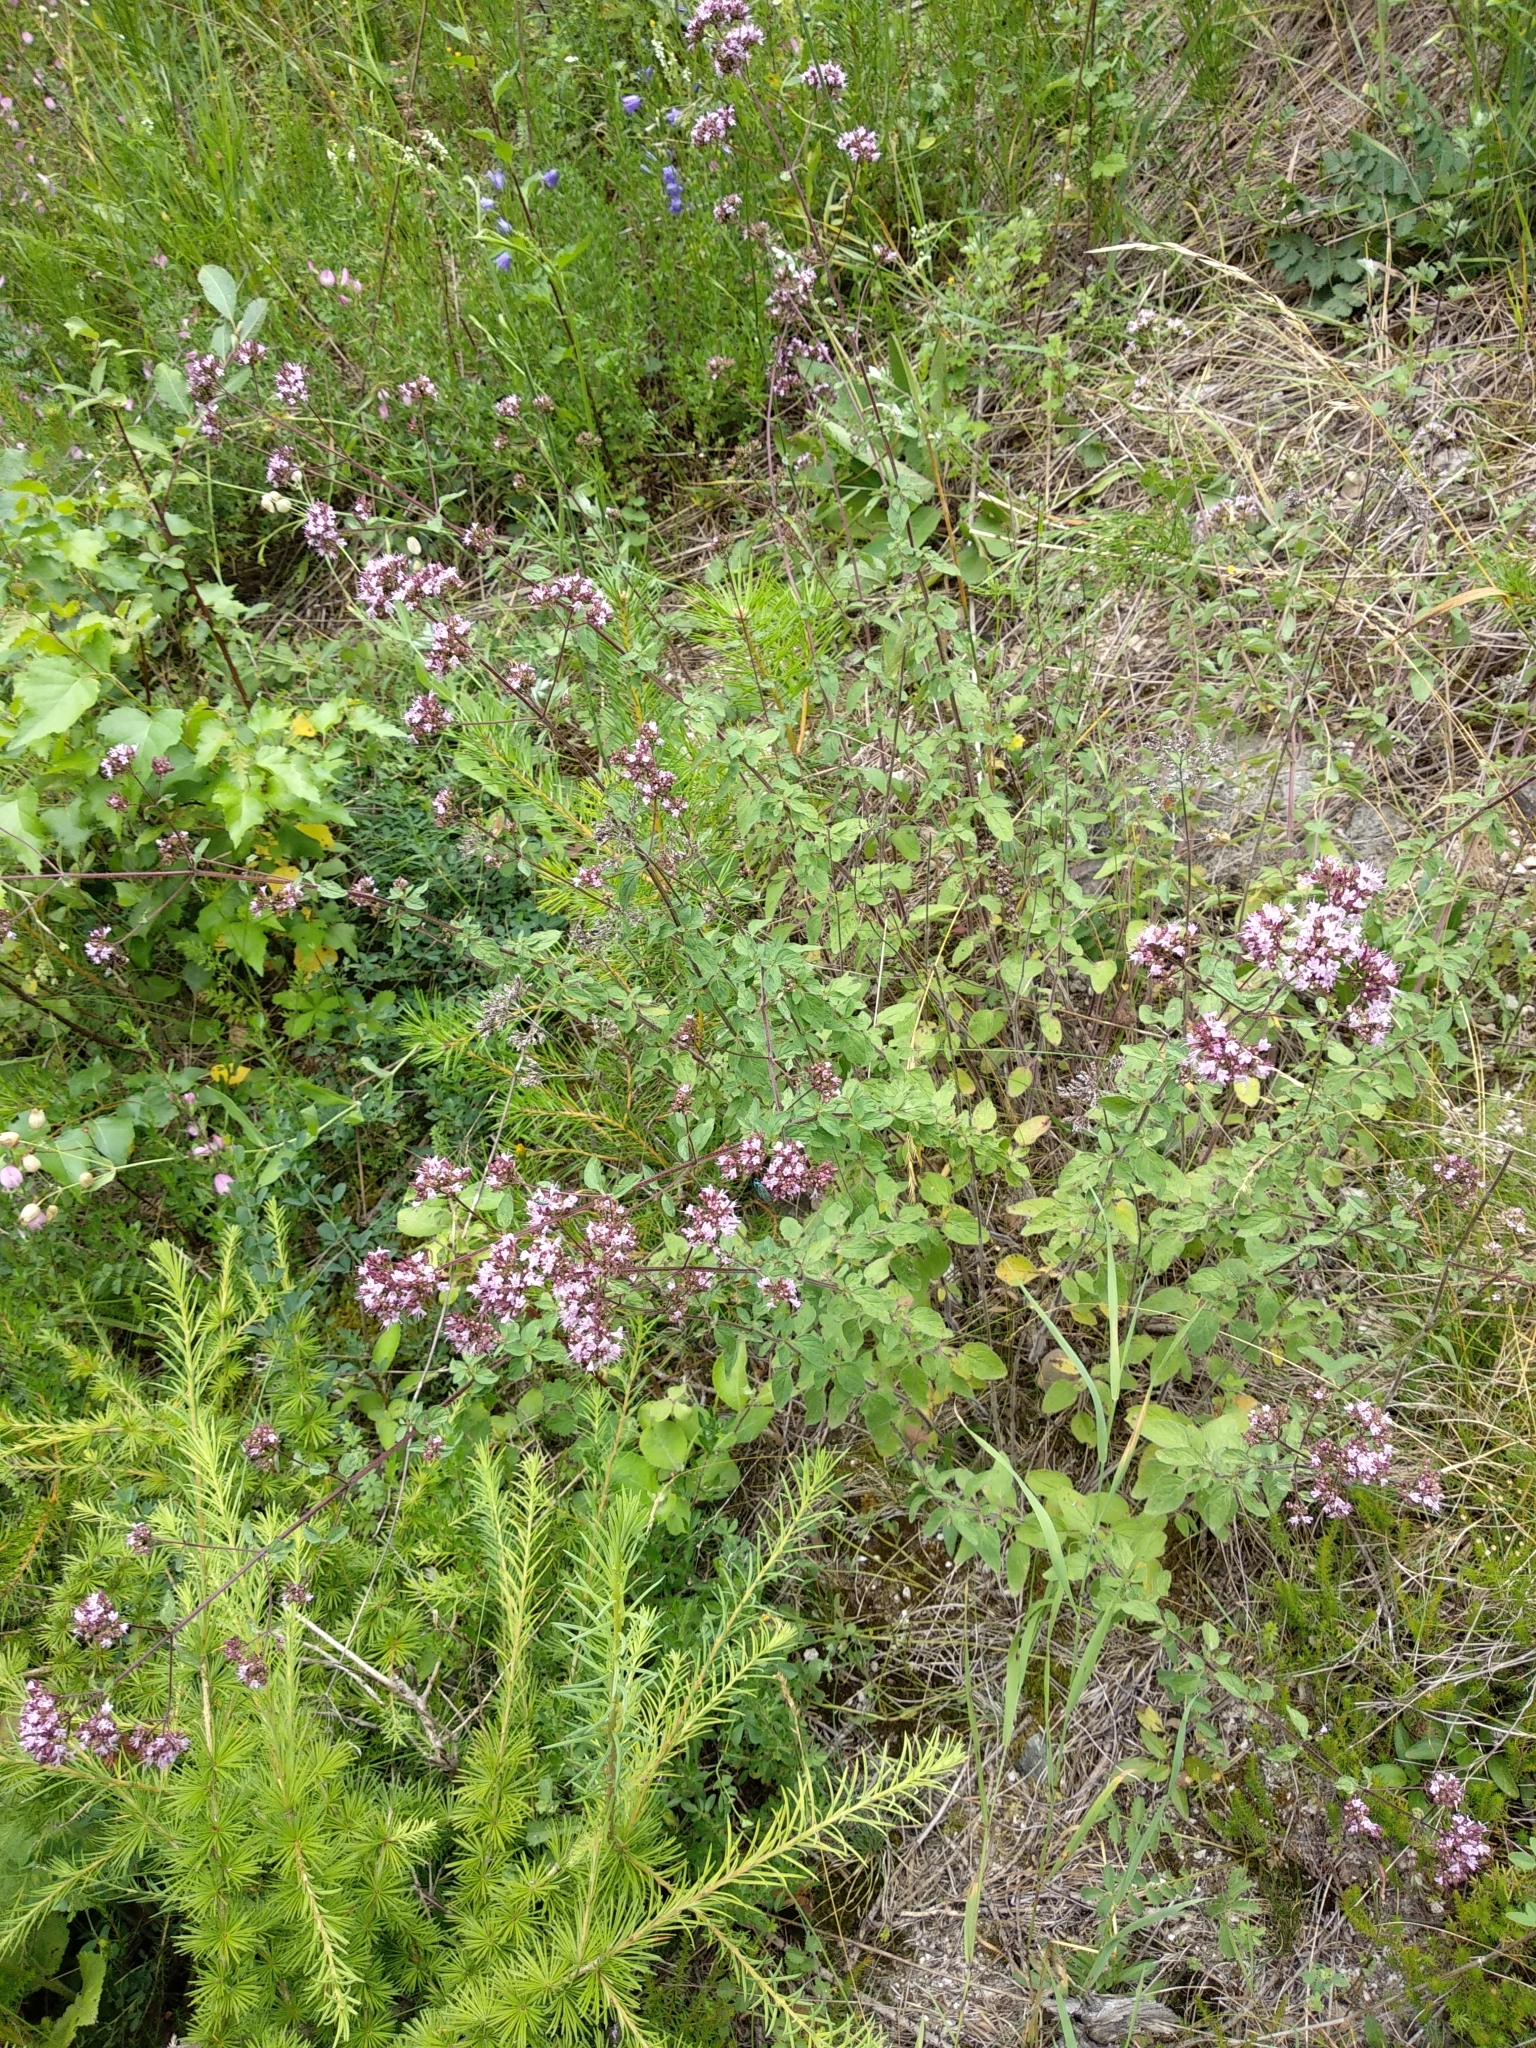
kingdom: Plantae
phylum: Tracheophyta
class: Magnoliopsida
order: Lamiales
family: Lamiaceae
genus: Origanum
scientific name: Origanum vulgare
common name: Wild marjoram
